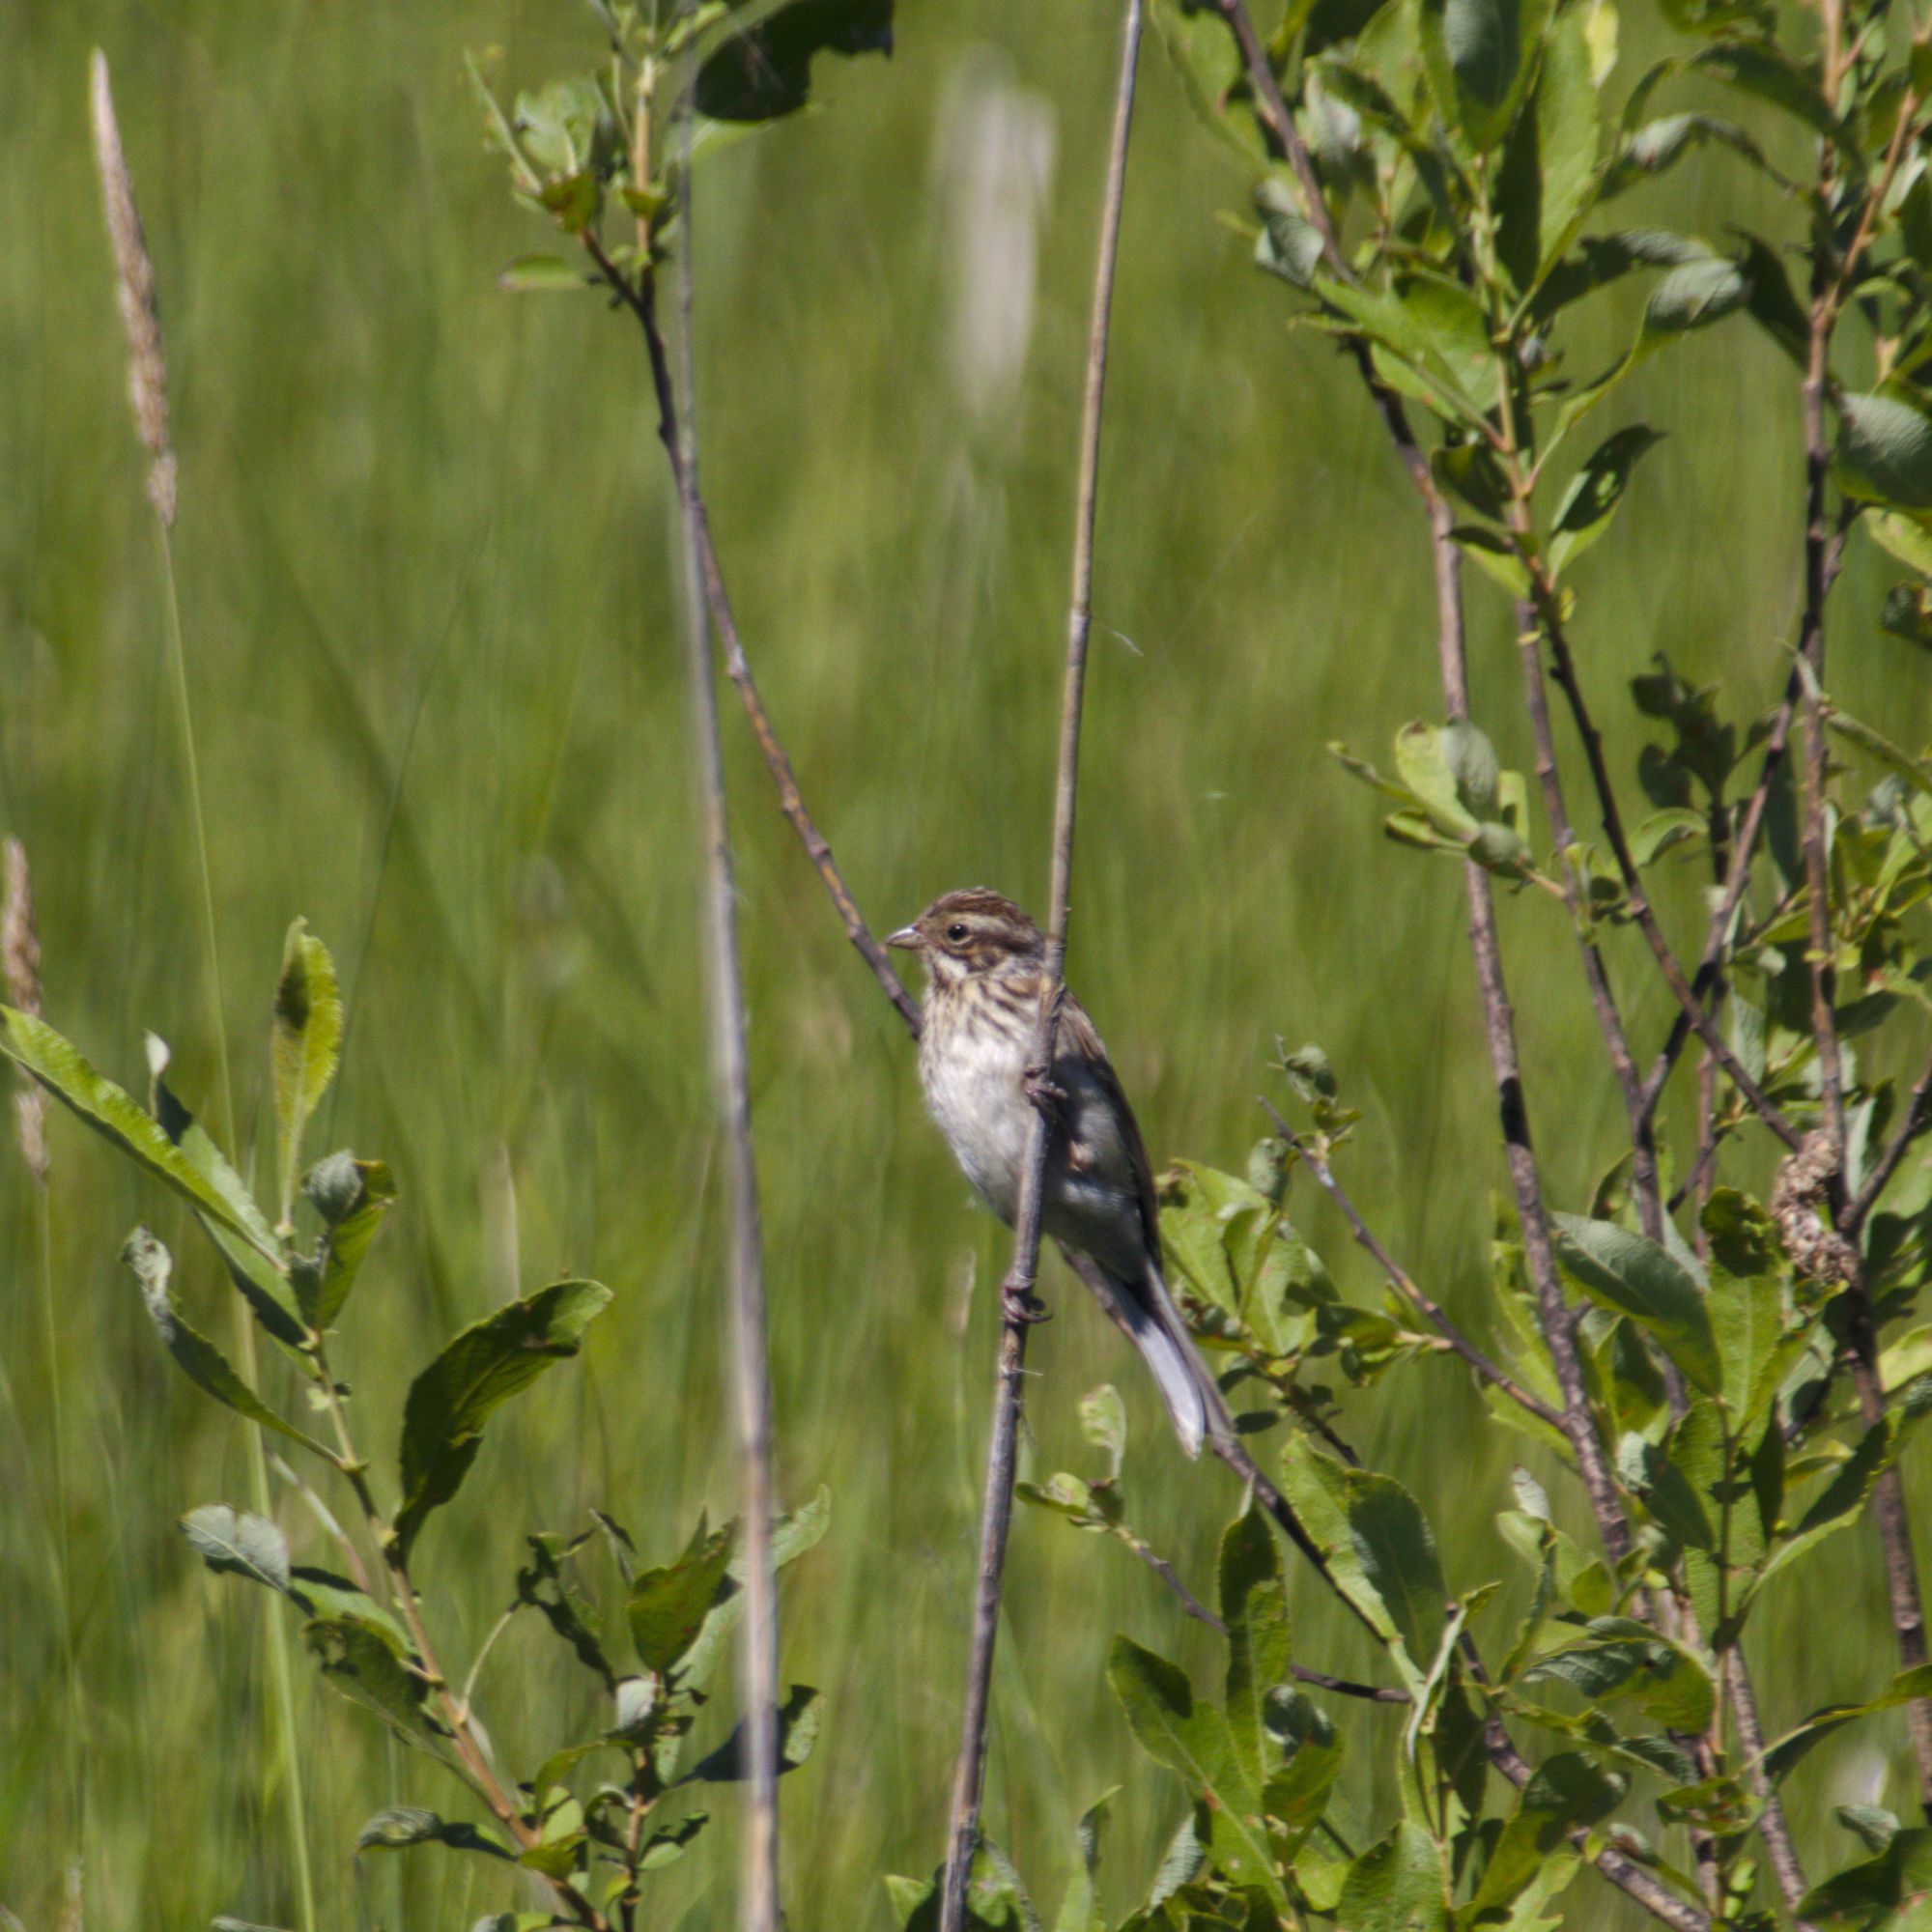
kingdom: Animalia
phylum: Chordata
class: Aves
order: Passeriformes
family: Emberizidae
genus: Emberiza
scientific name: Emberiza schoeniclus
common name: Reed bunting
